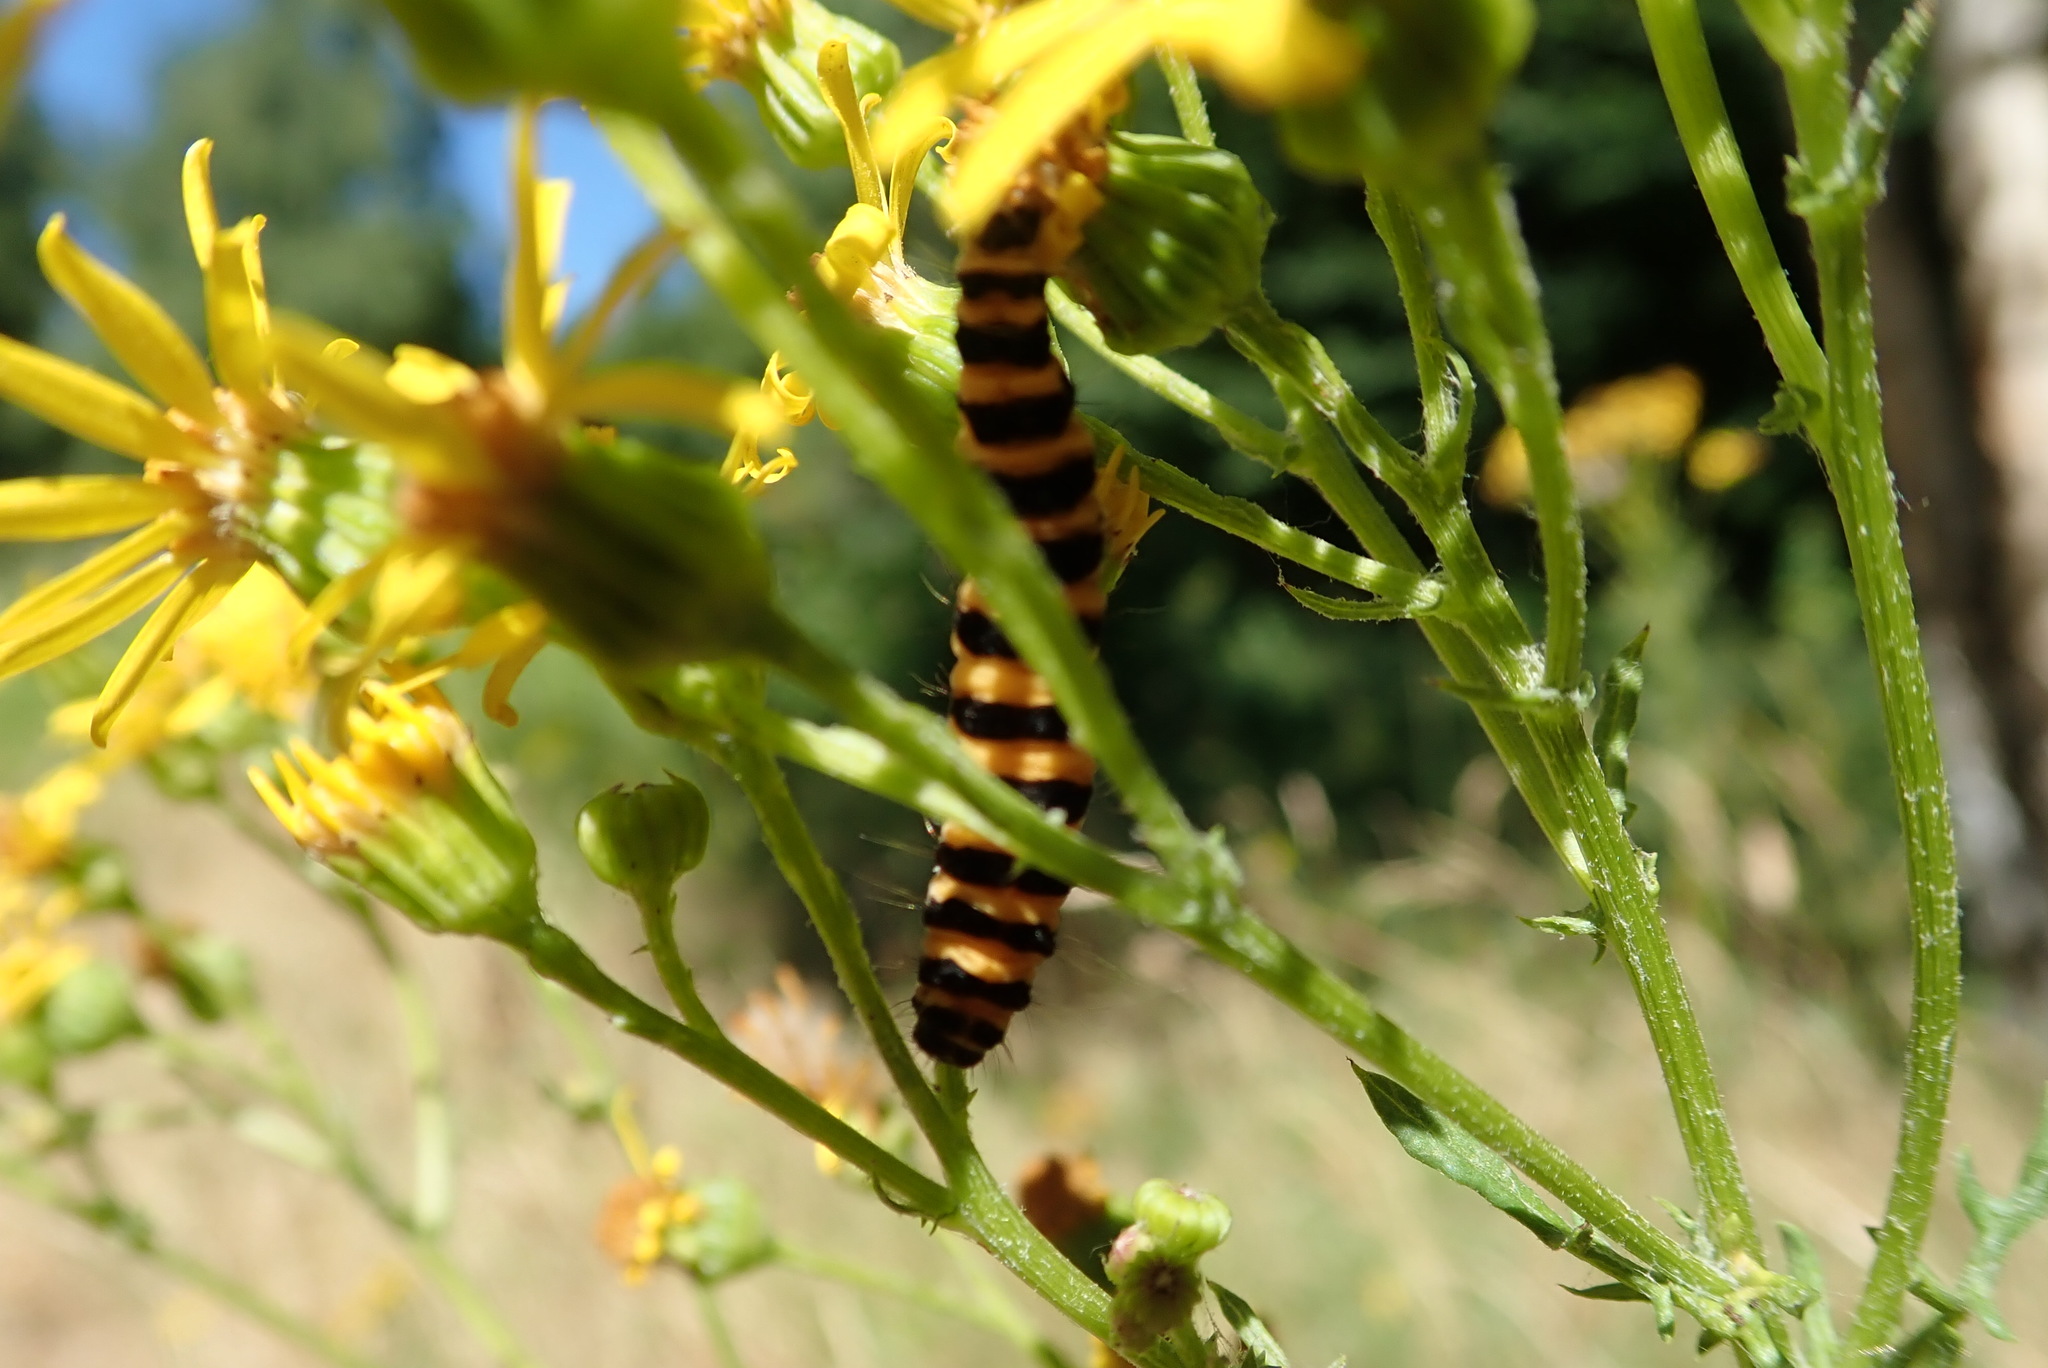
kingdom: Animalia
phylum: Arthropoda
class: Insecta
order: Lepidoptera
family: Erebidae
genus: Tyria
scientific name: Tyria jacobaeae
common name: Cinnabar
